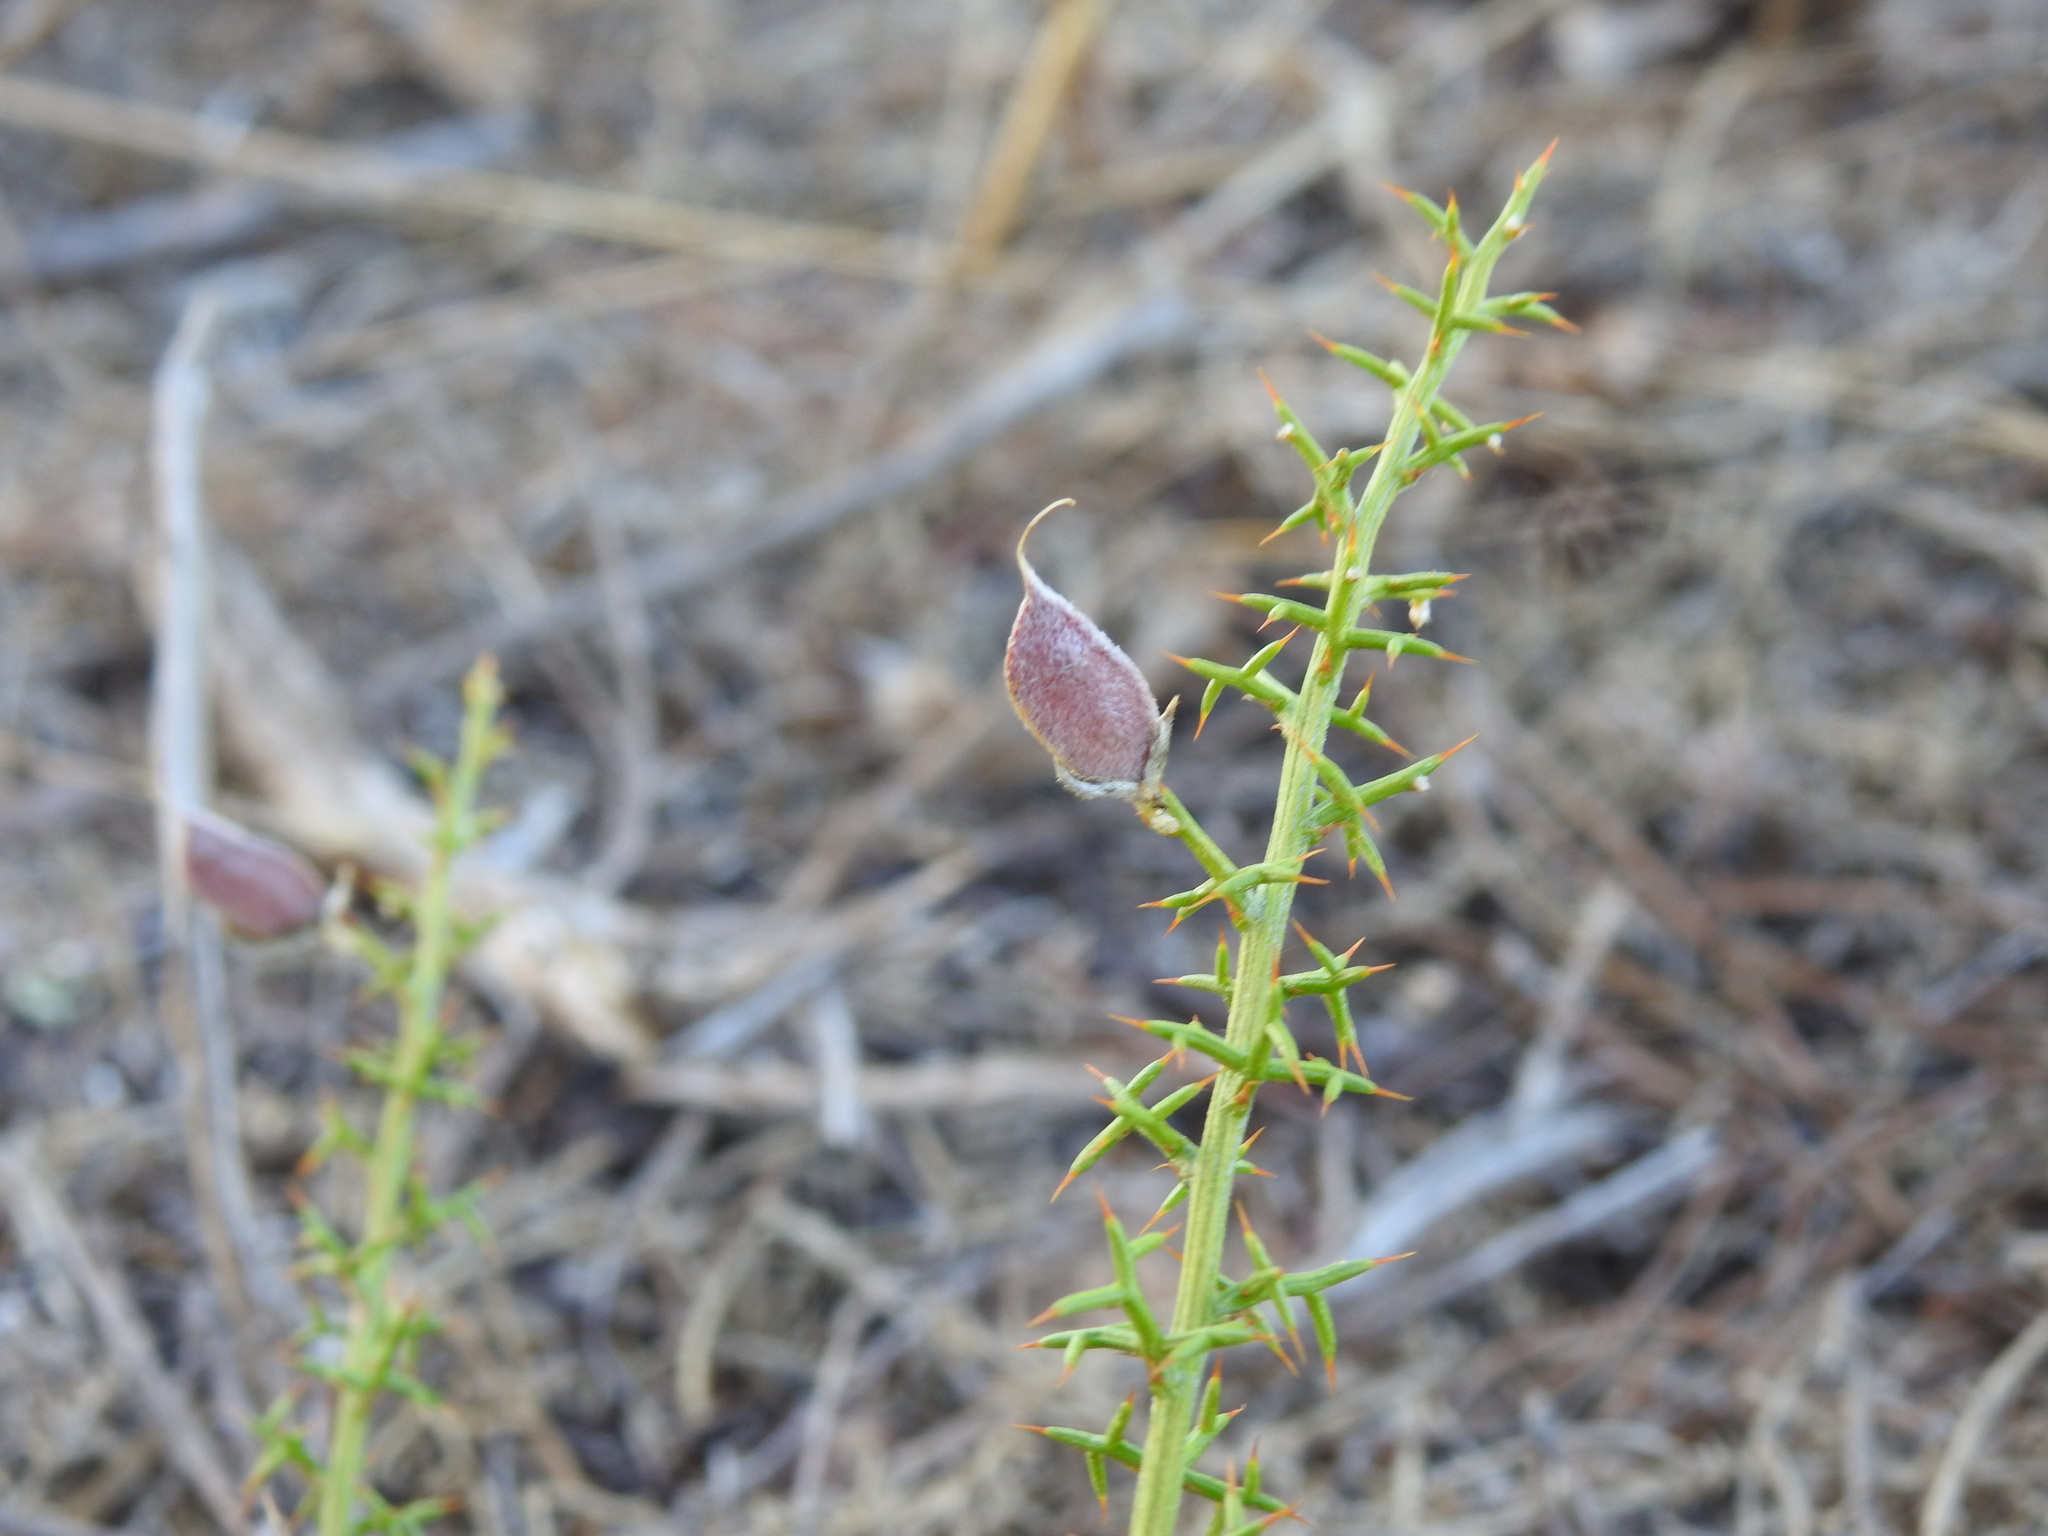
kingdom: Plantae
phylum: Tracheophyta
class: Magnoliopsida
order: Fabales
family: Fabaceae
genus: Stauracanthus
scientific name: Stauracanthus boivinii
